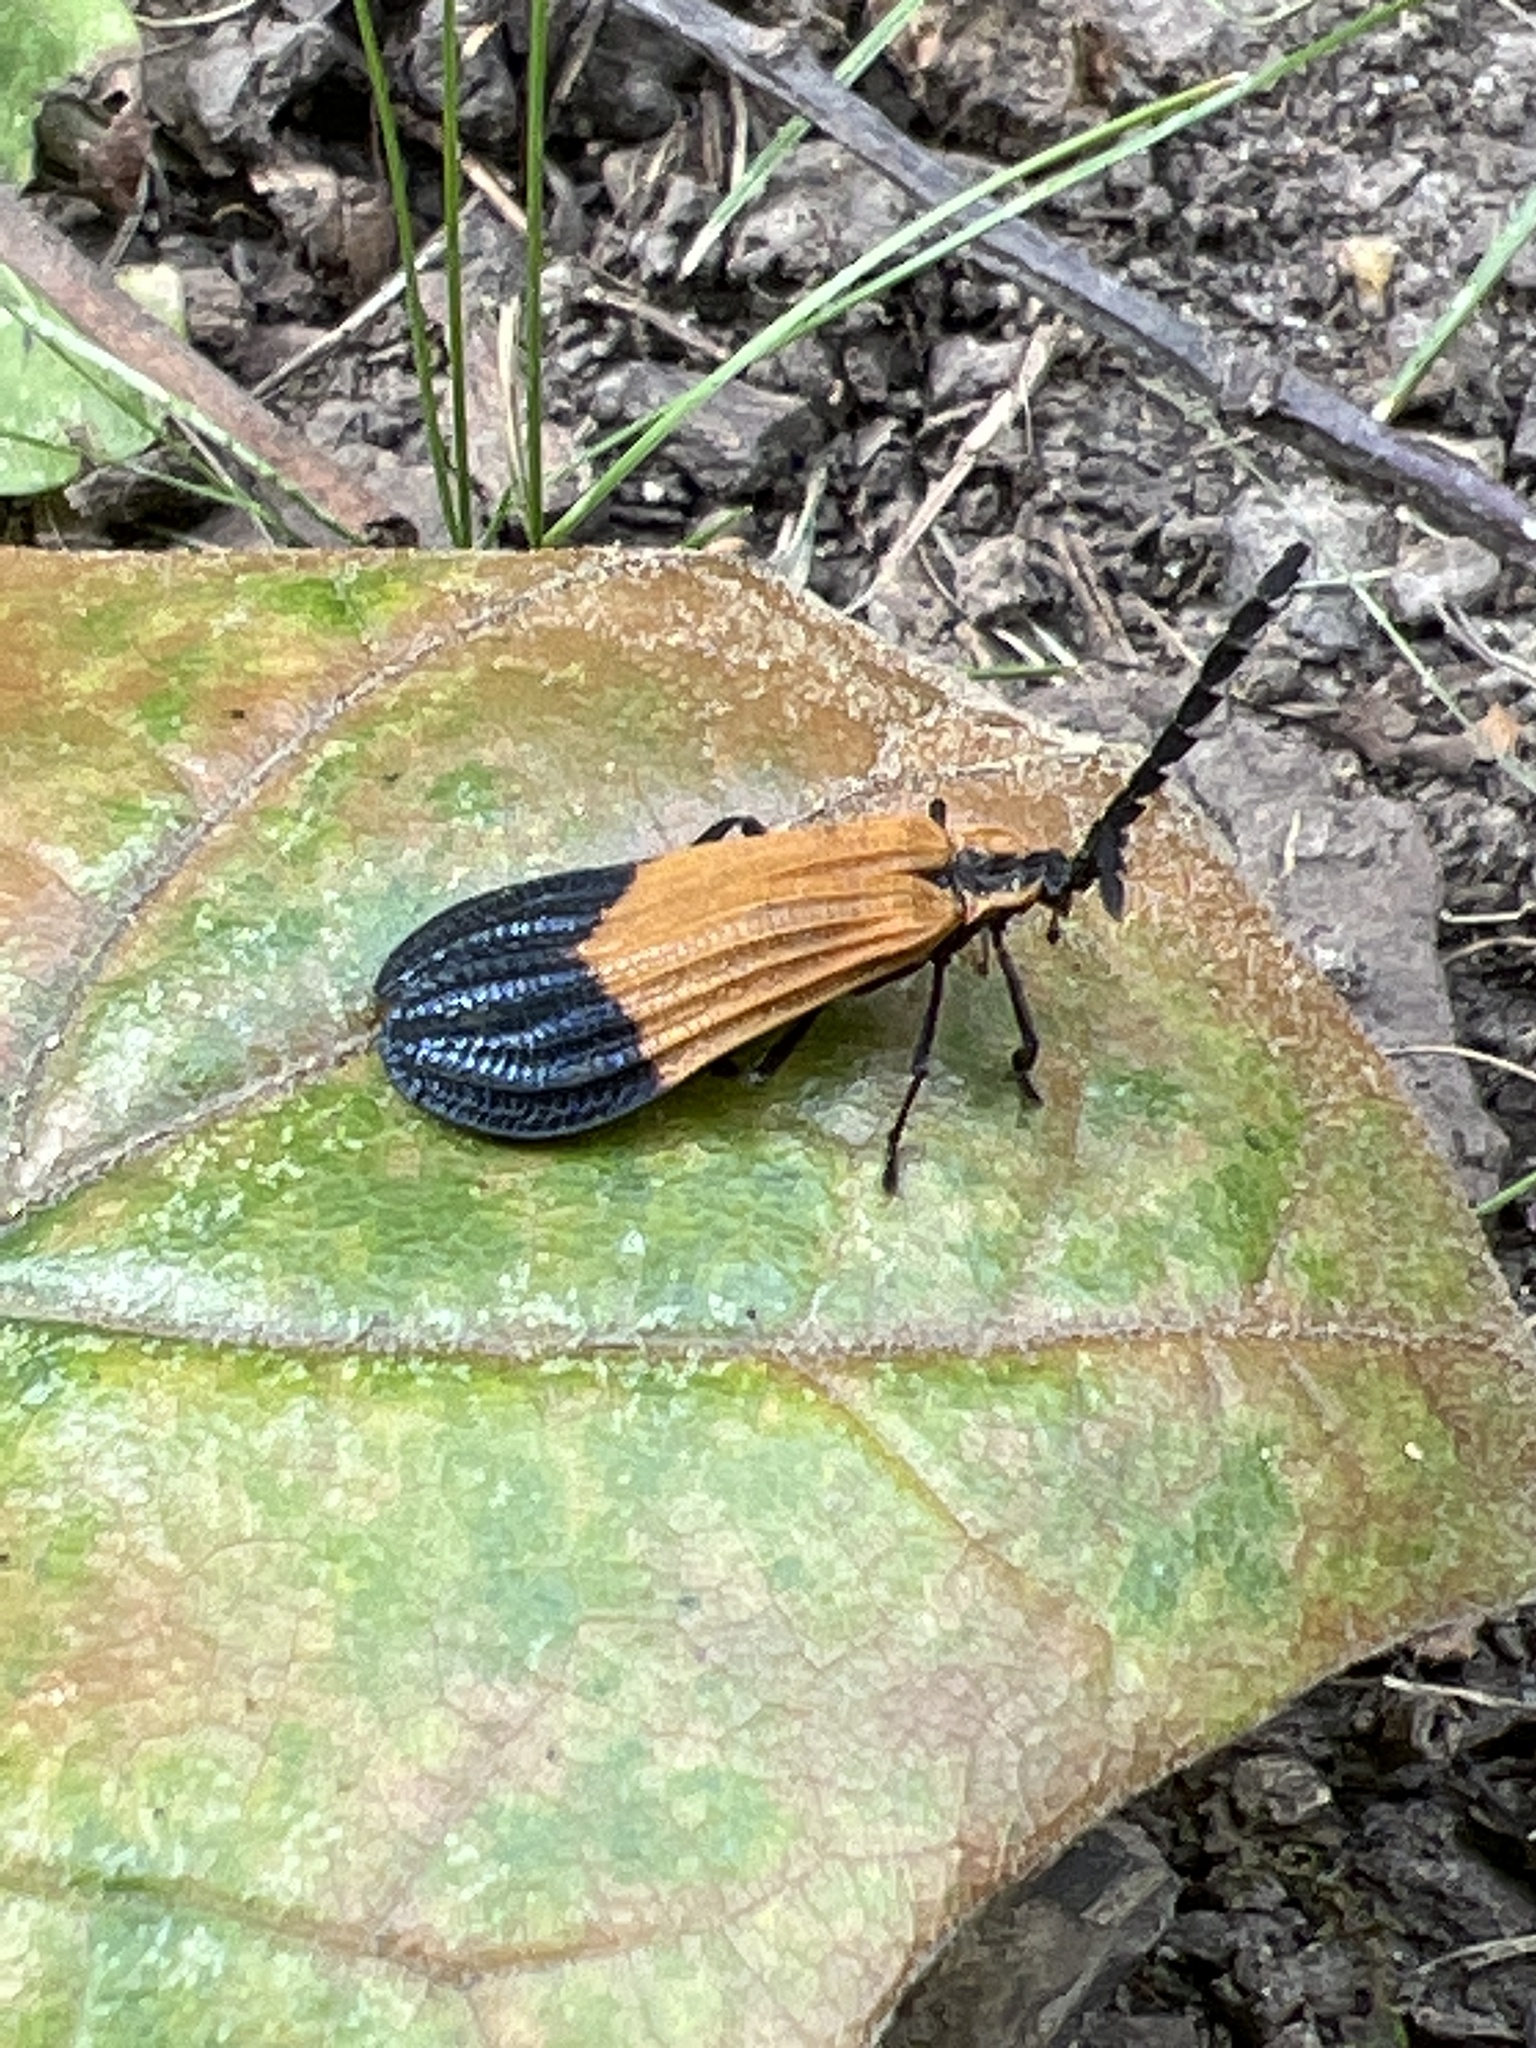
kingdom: Animalia
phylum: Arthropoda
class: Insecta
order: Coleoptera
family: Lycidae
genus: Calopteron
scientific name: Calopteron terminale
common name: End band net-winged beetle
